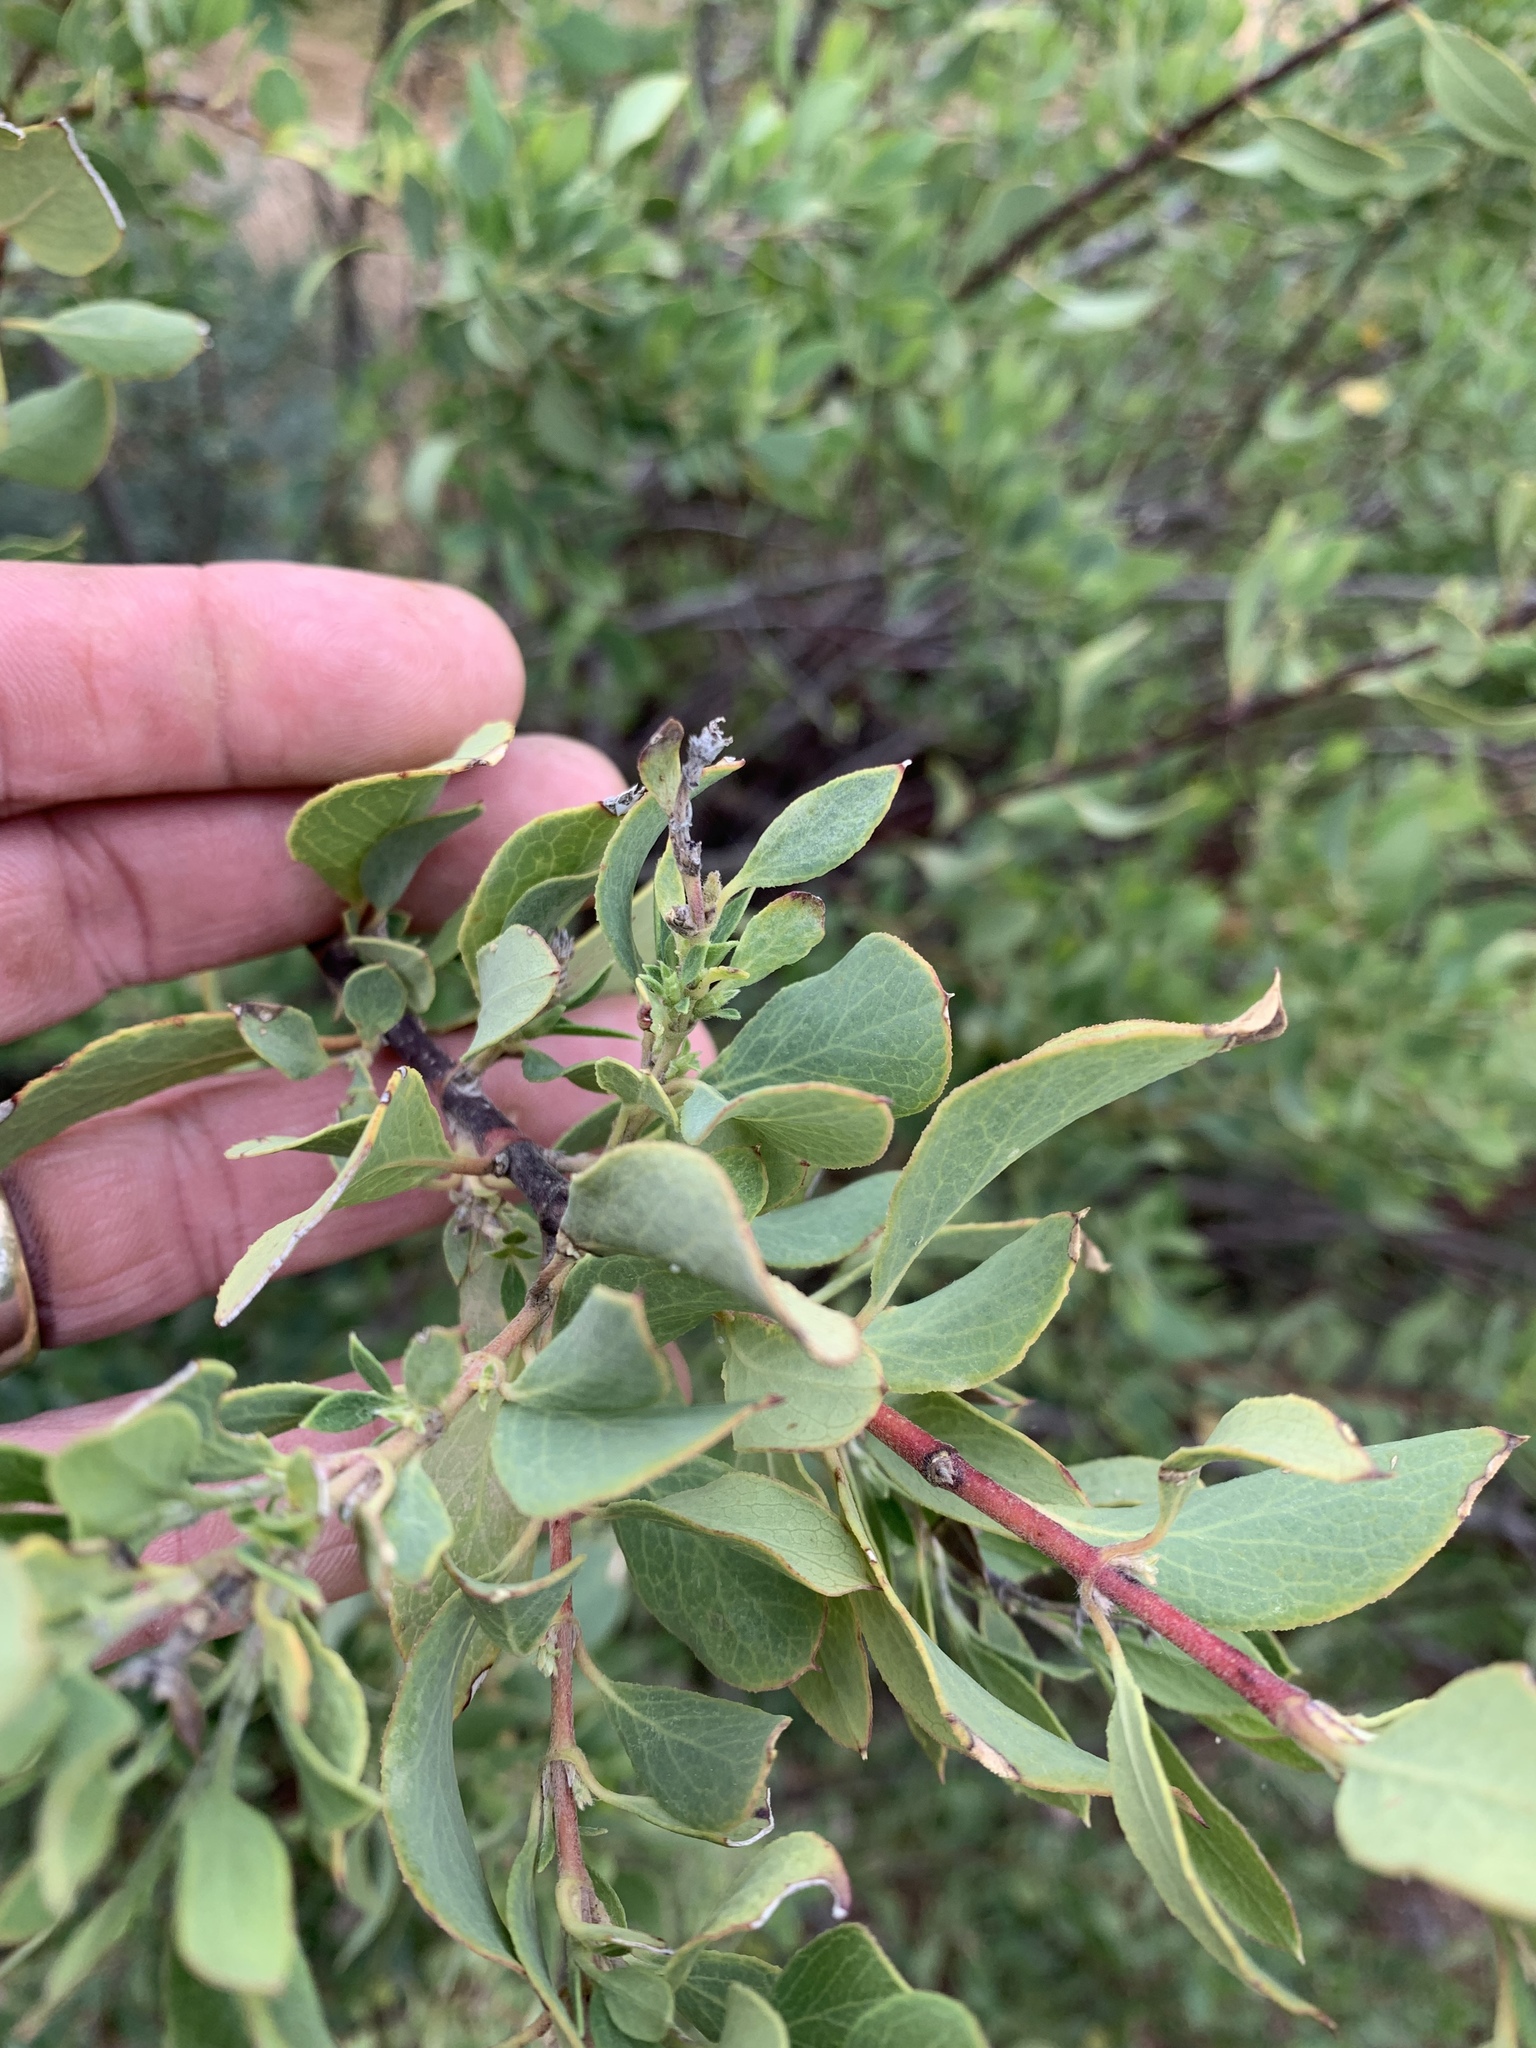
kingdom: Plantae
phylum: Tracheophyta
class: Magnoliopsida
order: Garryales
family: Garryaceae
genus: Garrya
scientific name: Garrya wrightii
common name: Wright's silktassel
